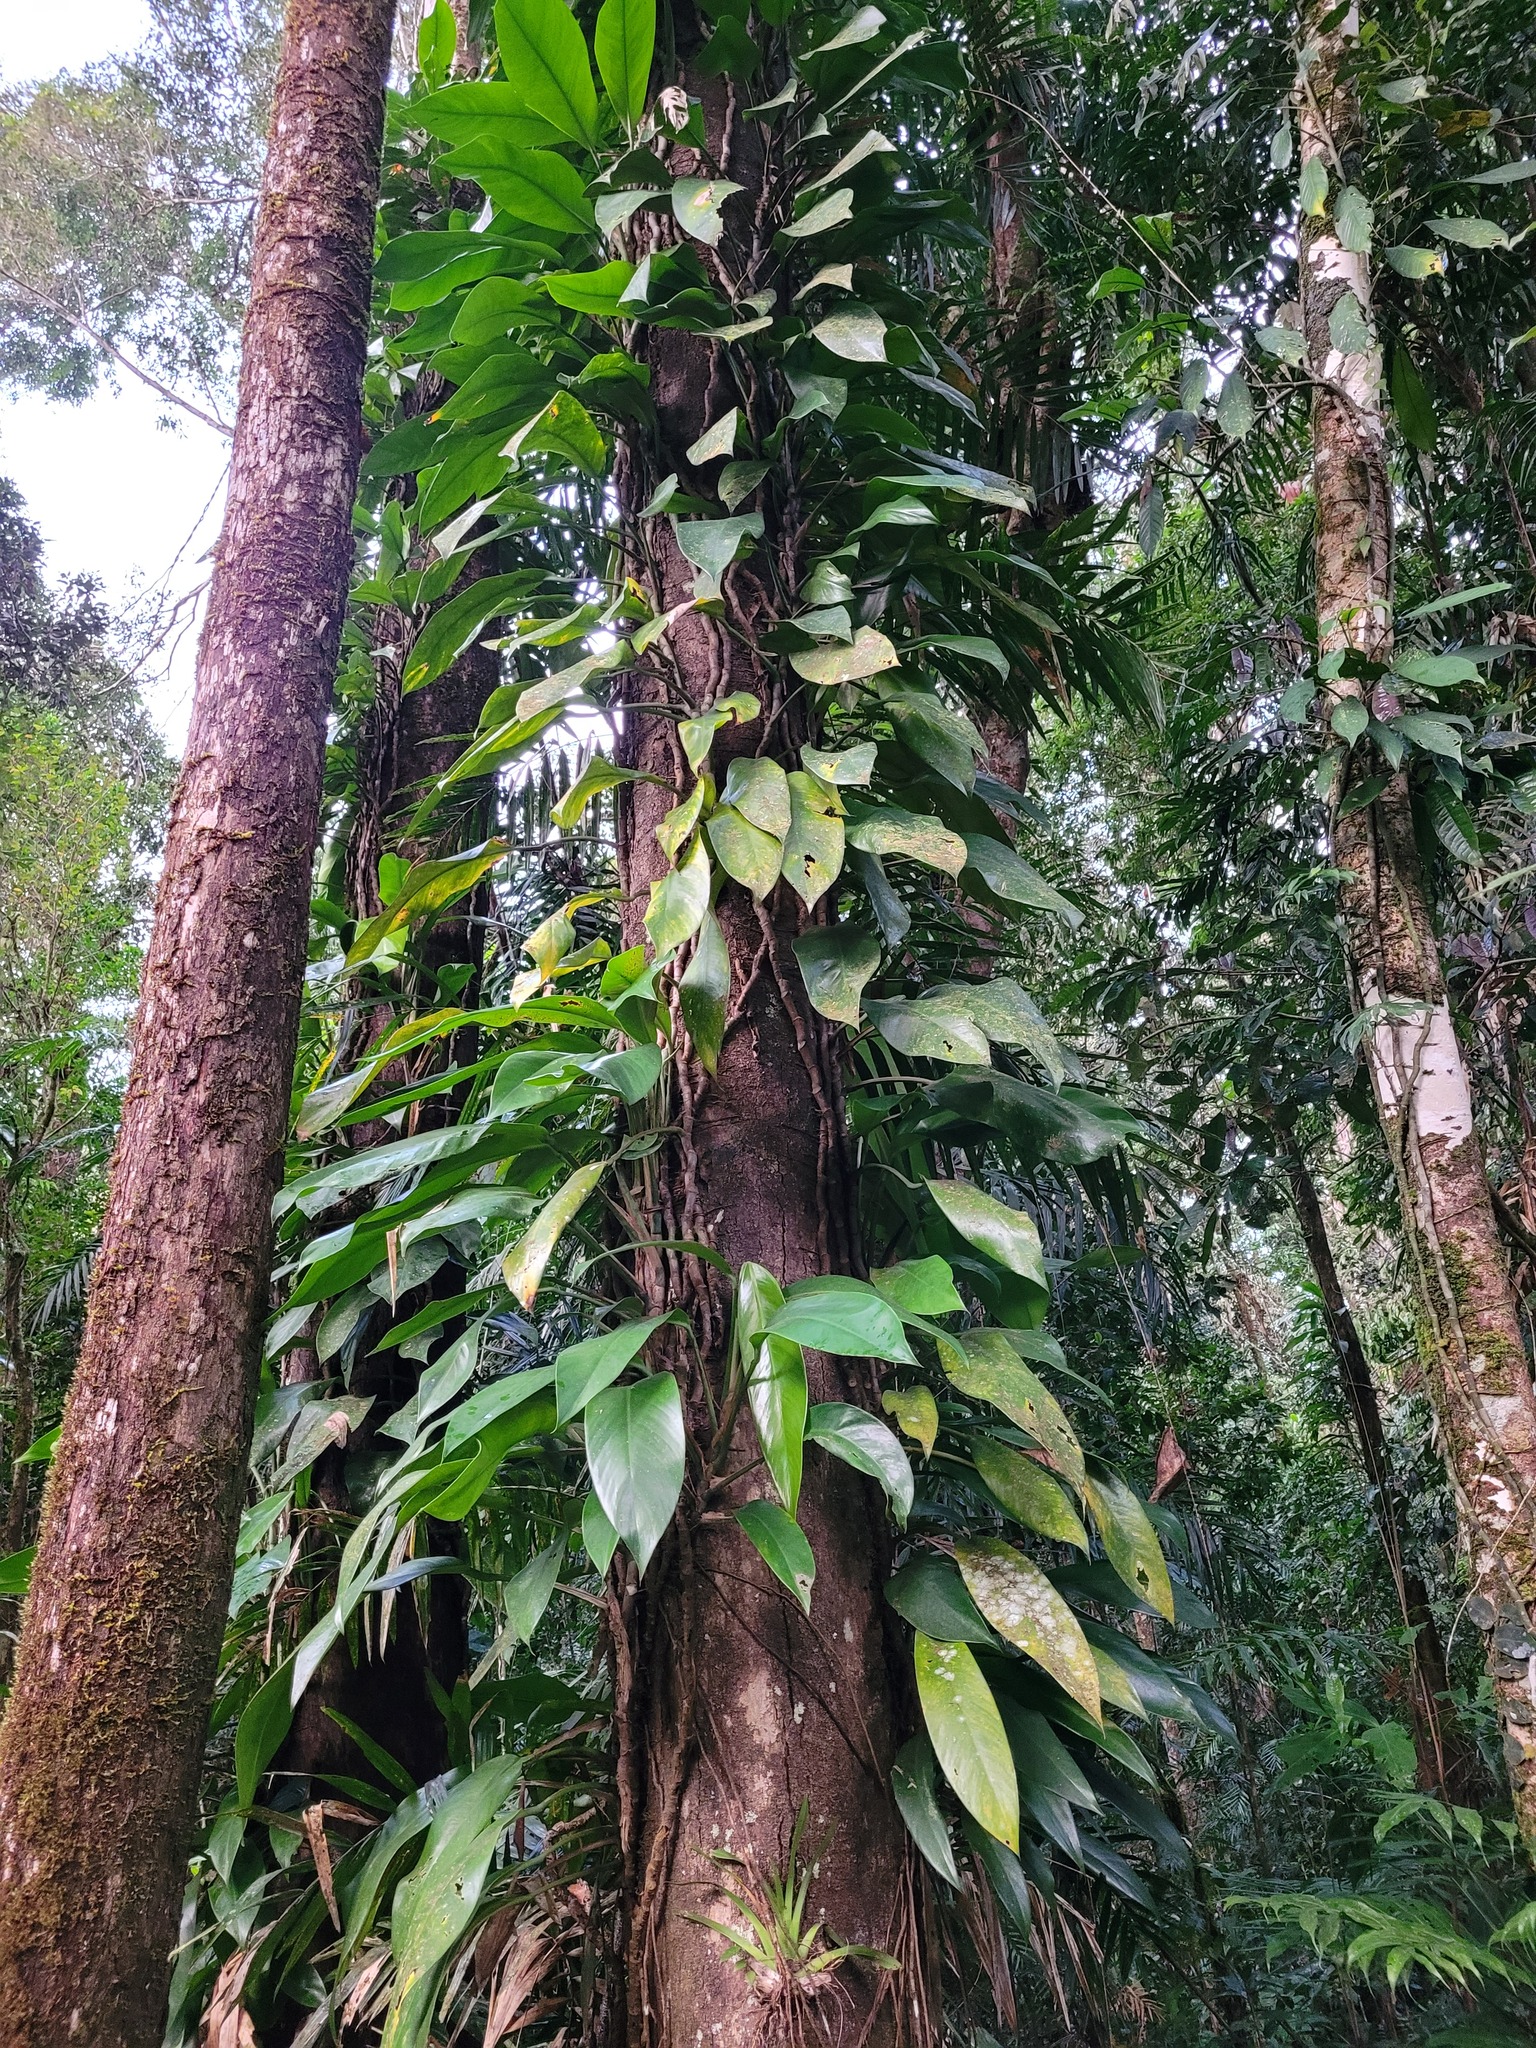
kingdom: Plantae
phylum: Tracheophyta
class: Liliopsida
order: Alismatales
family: Araceae
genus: Rhaphidophora
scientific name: Rhaphidophora australasica
